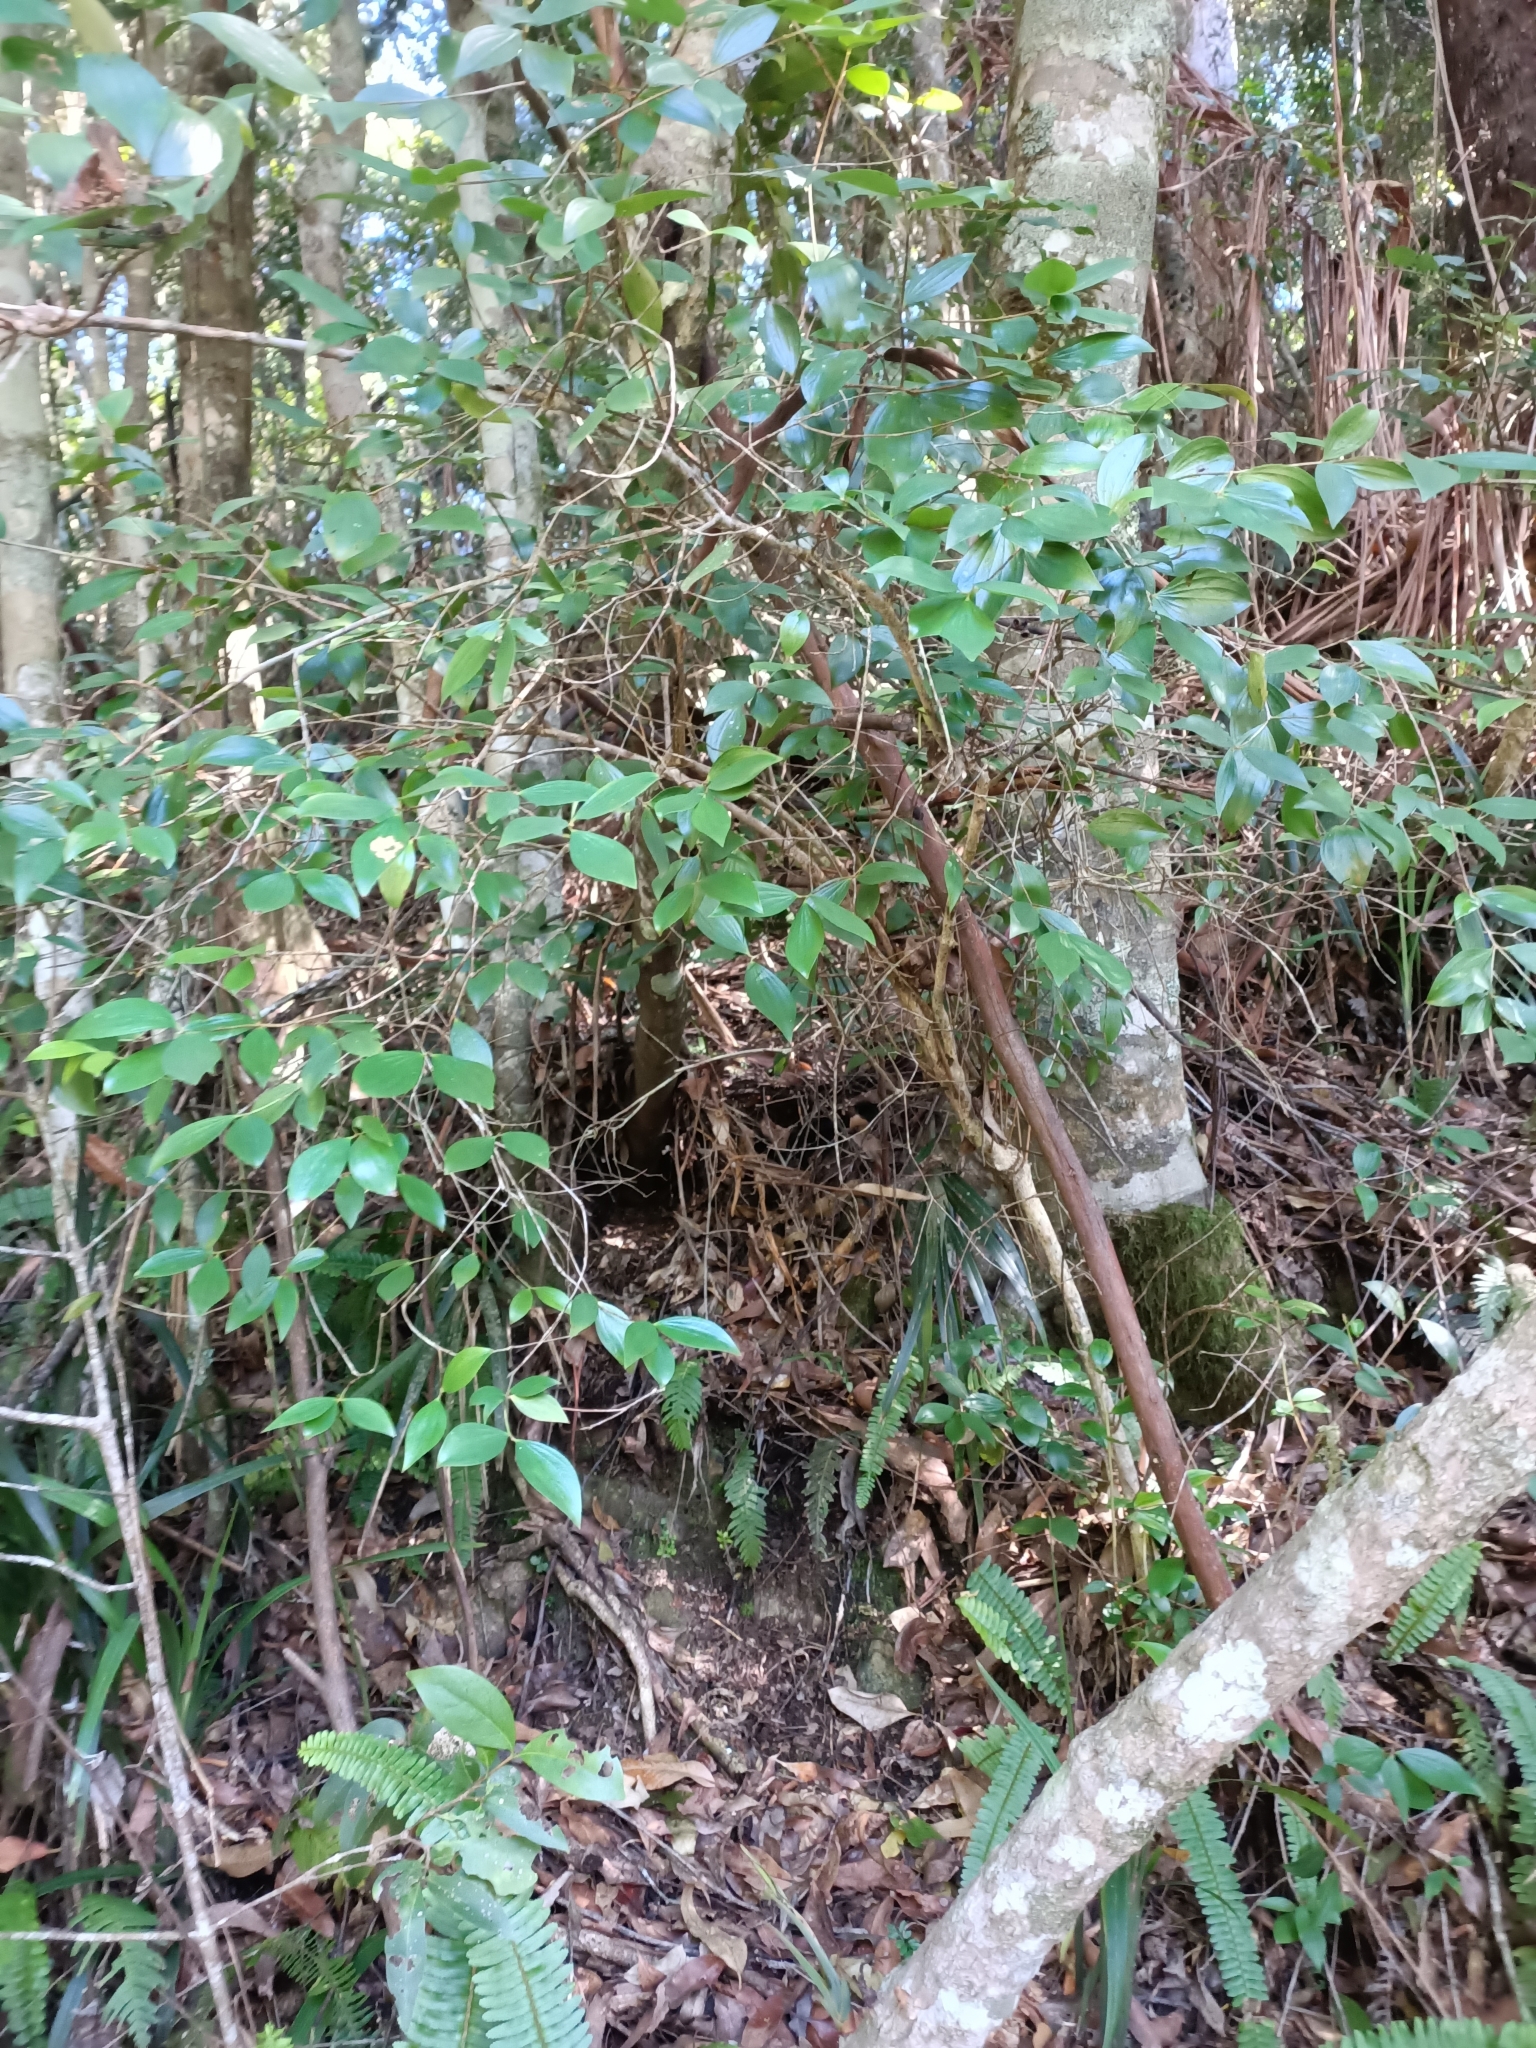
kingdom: Plantae
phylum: Tracheophyta
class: Magnoliopsida
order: Ericales
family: Ericaceae
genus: Trochocarpa
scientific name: Trochocarpa laurina
